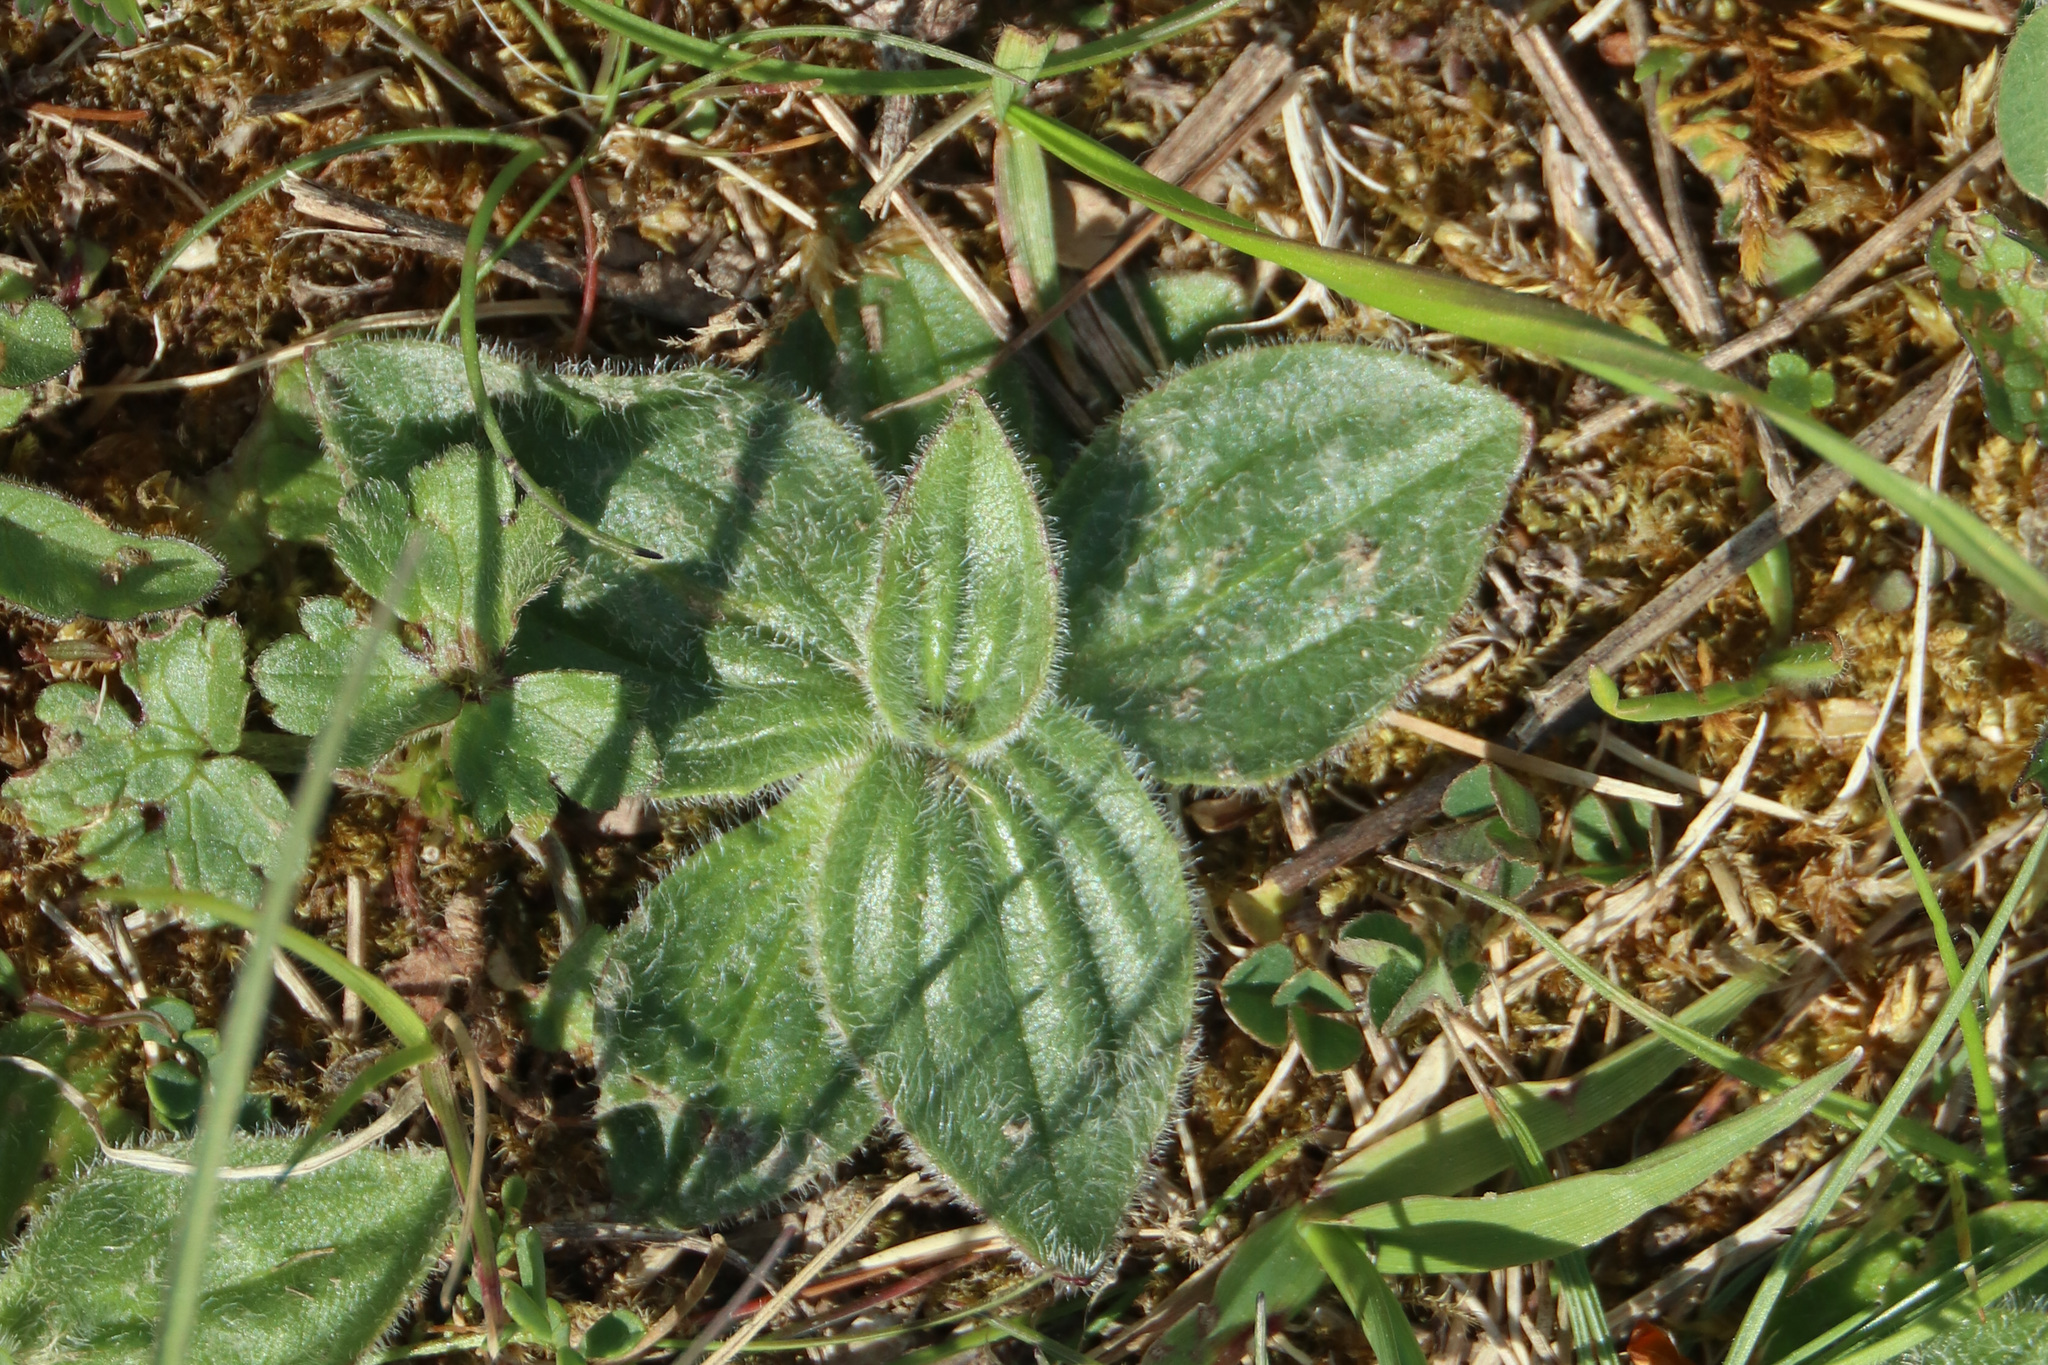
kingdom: Plantae
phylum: Tracheophyta
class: Magnoliopsida
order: Lamiales
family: Plantaginaceae
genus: Plantago
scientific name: Plantago media
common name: Hoary plantain
